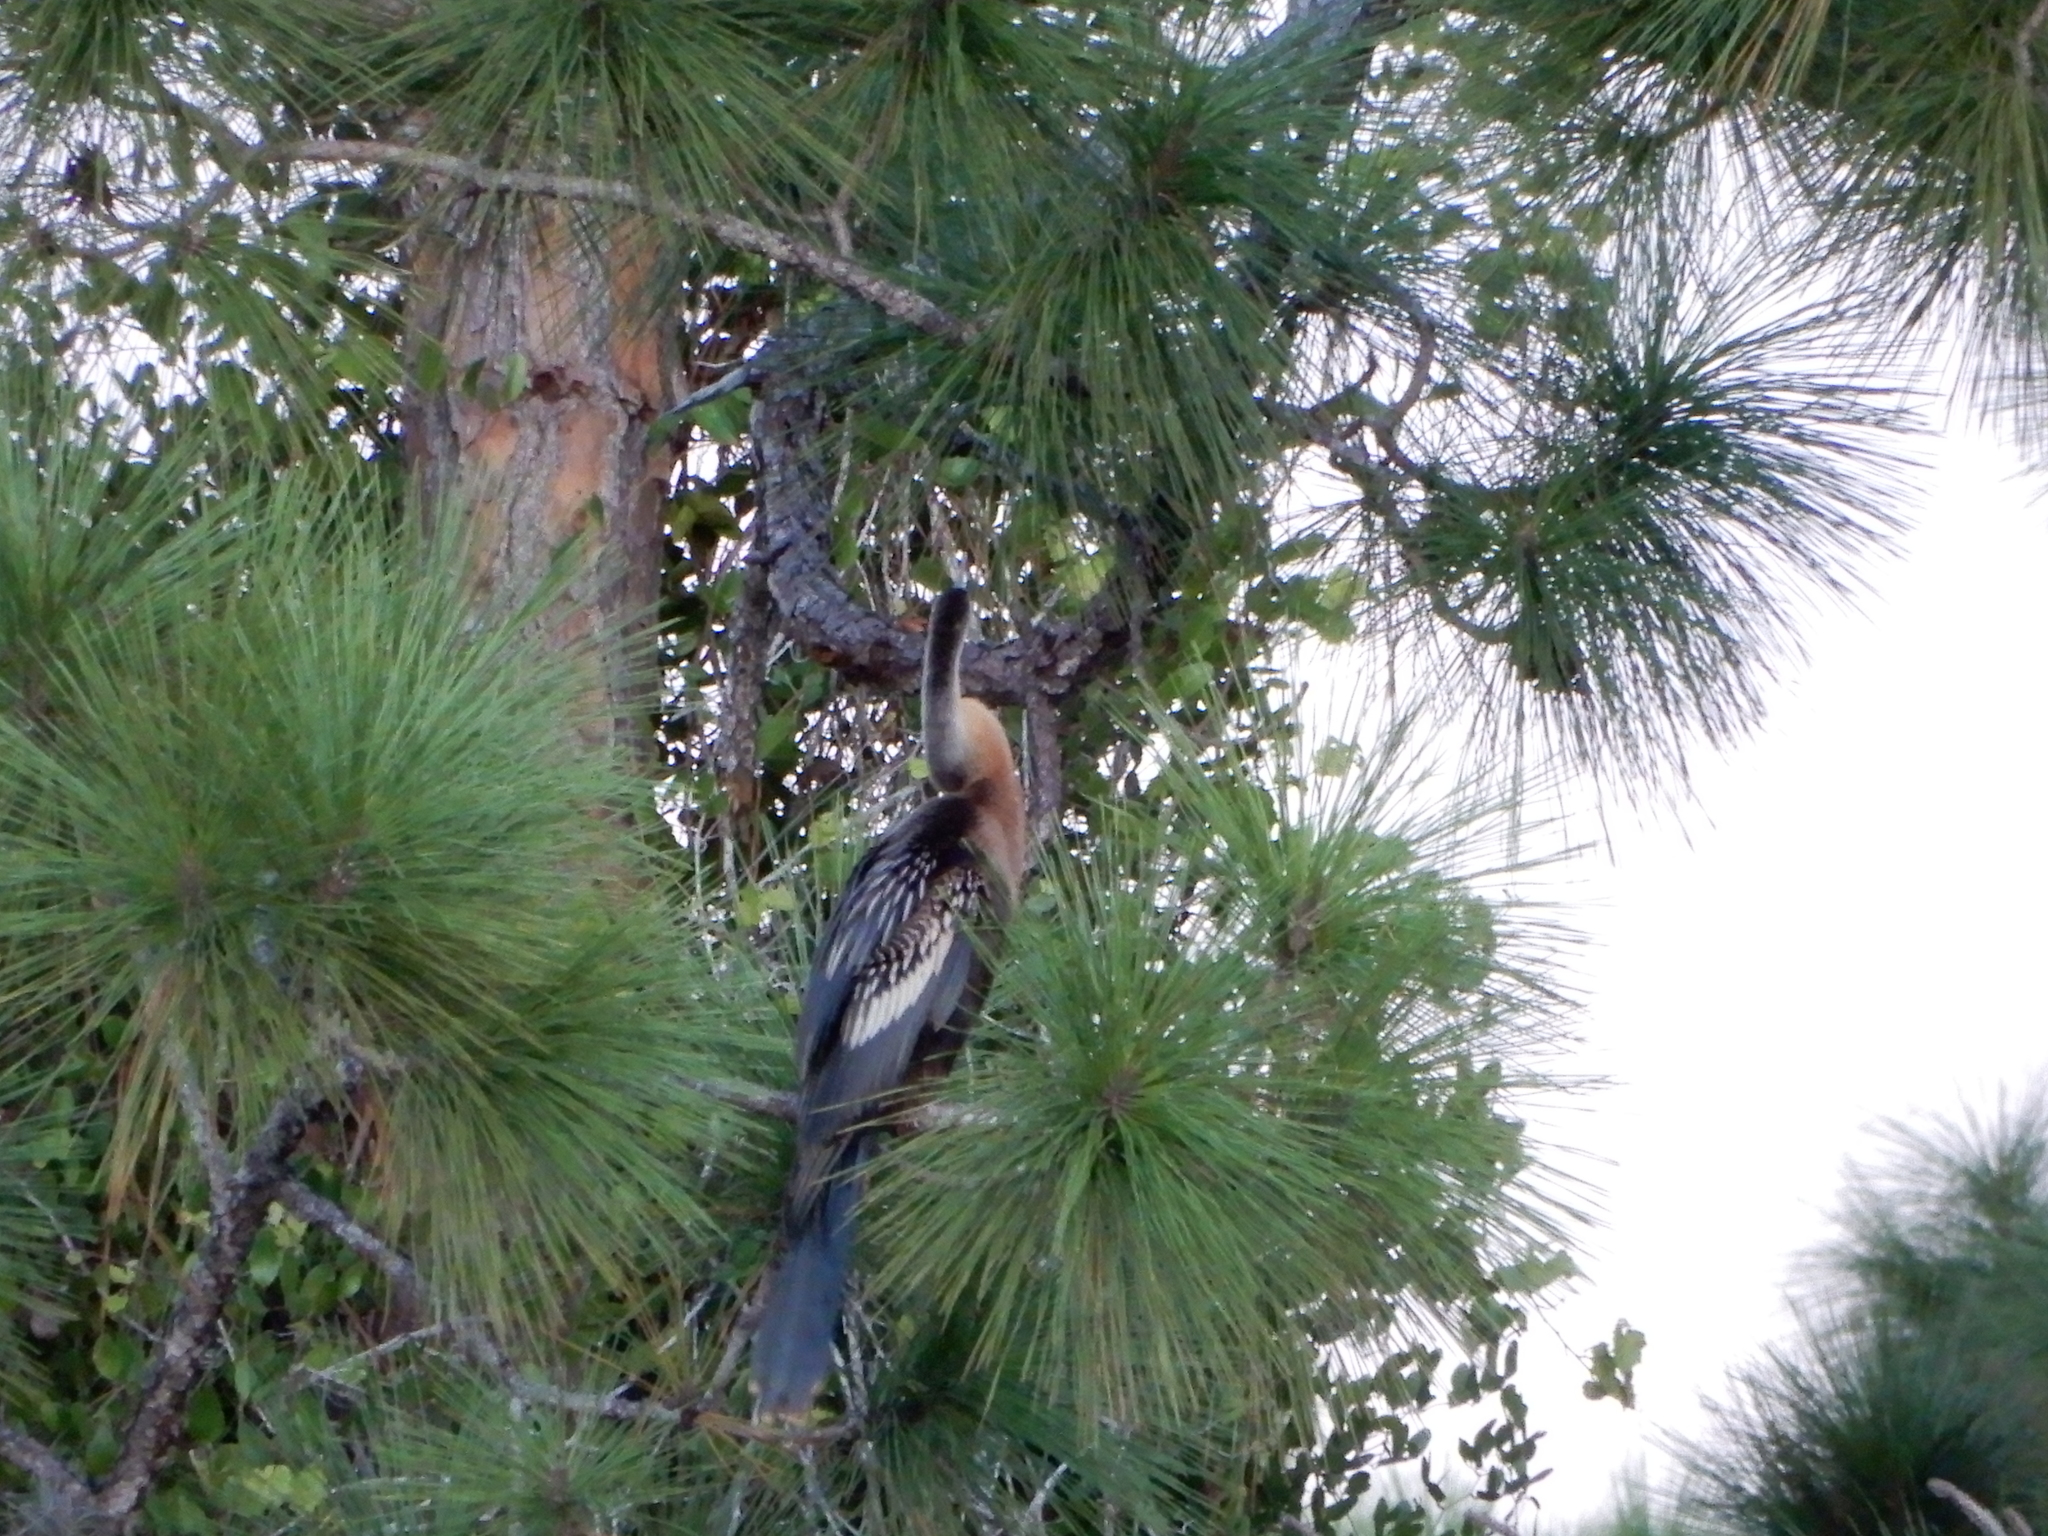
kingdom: Animalia
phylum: Chordata
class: Aves
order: Suliformes
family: Anhingidae
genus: Anhinga
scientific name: Anhinga anhinga
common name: Anhinga
